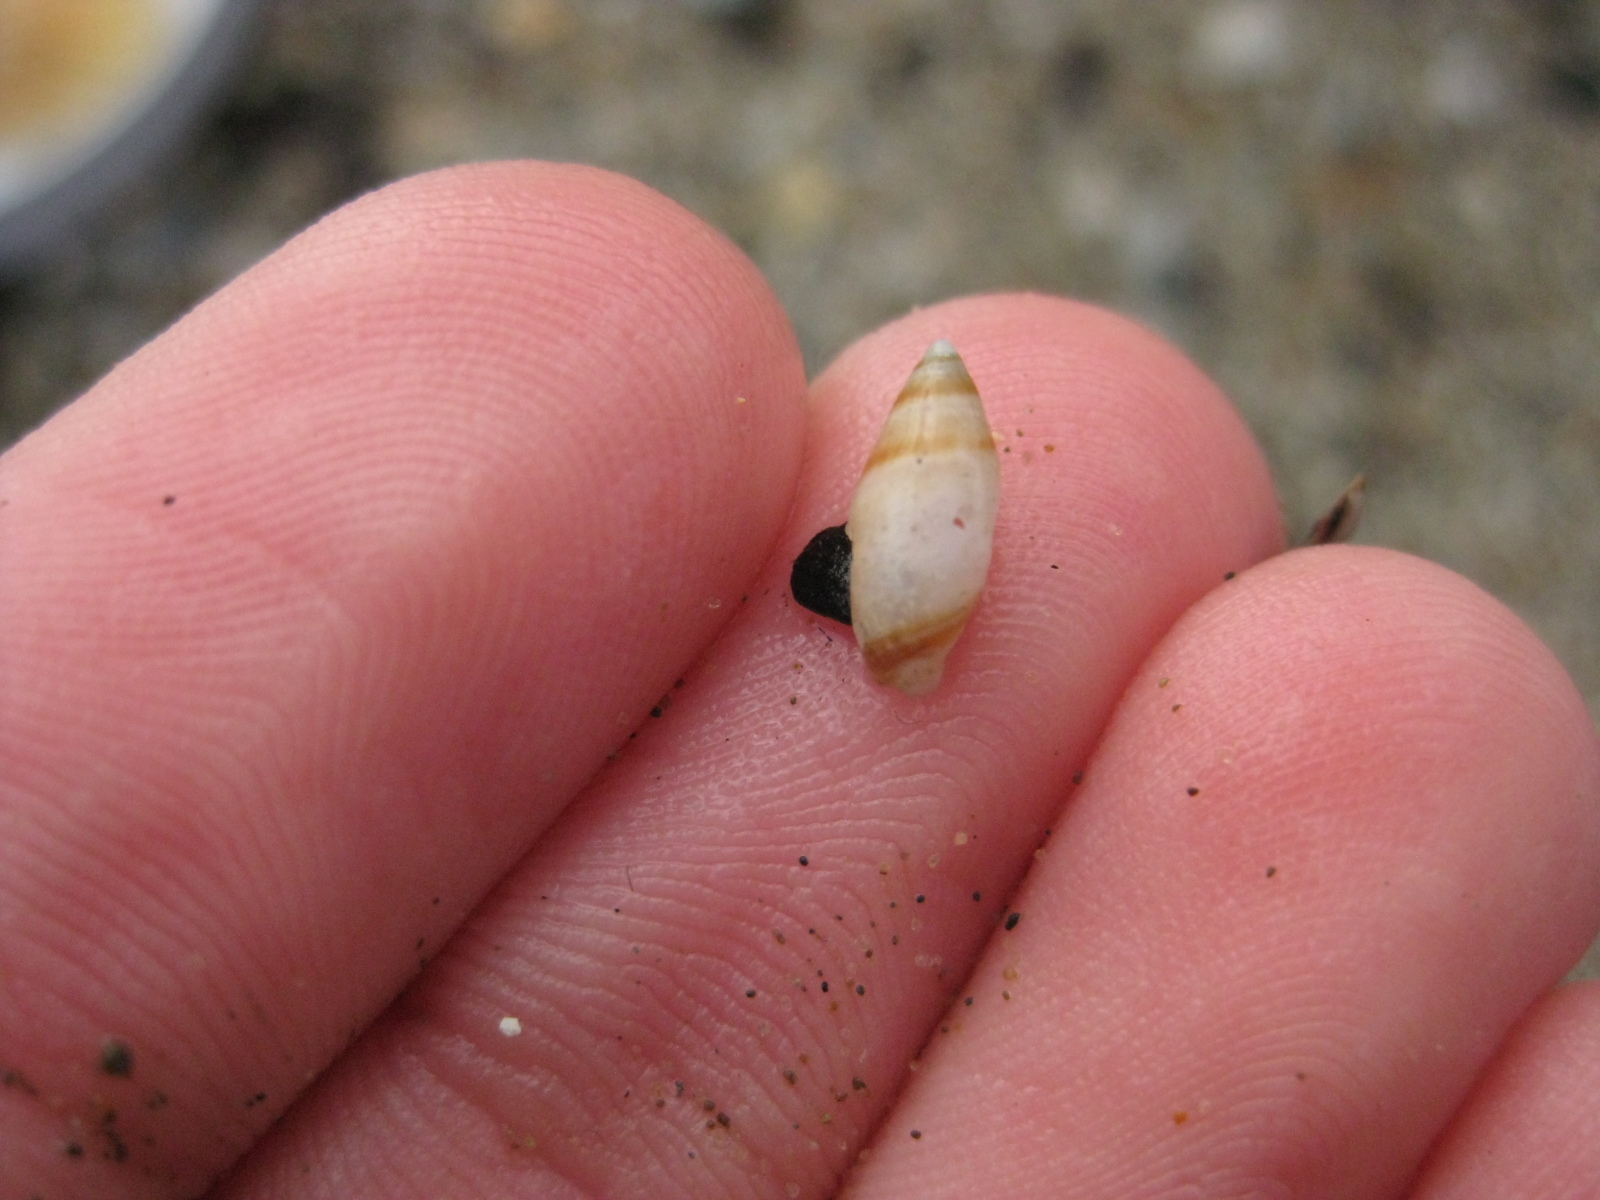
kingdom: Animalia
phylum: Mollusca
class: Gastropoda
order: Neogastropoda
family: Ancillariidae
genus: Amalda
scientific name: Amalda novaezelandiae
